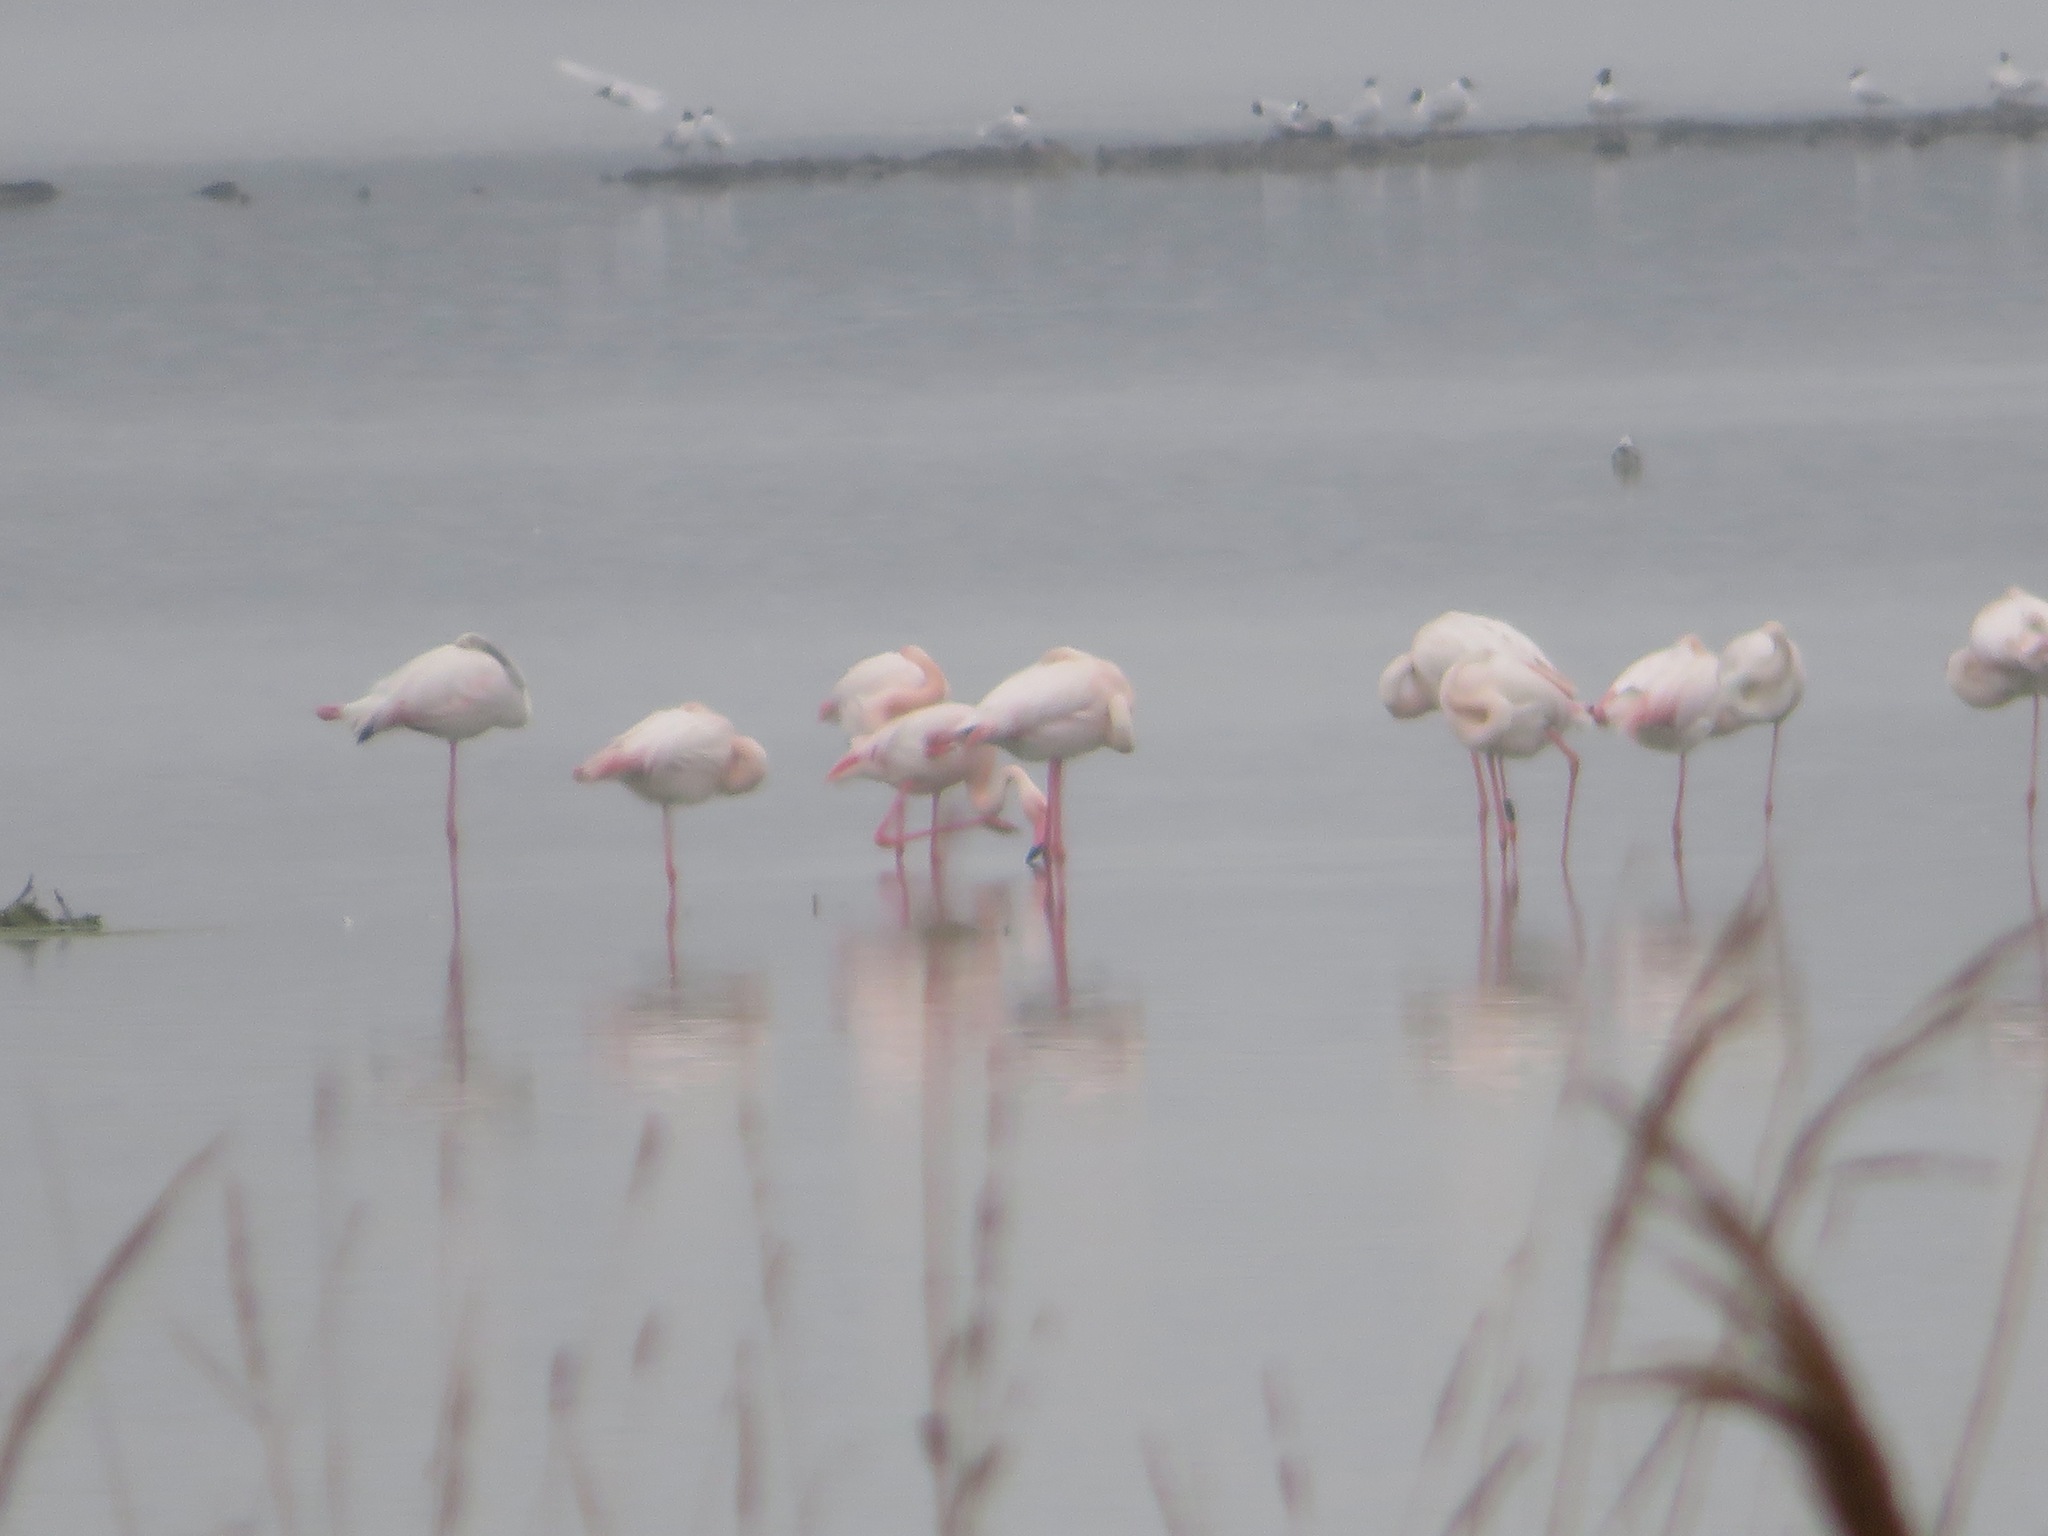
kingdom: Animalia
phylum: Chordata
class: Aves
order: Phoenicopteriformes
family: Phoenicopteridae
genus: Phoenicopterus
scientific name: Phoenicopterus roseus
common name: Greater flamingo
